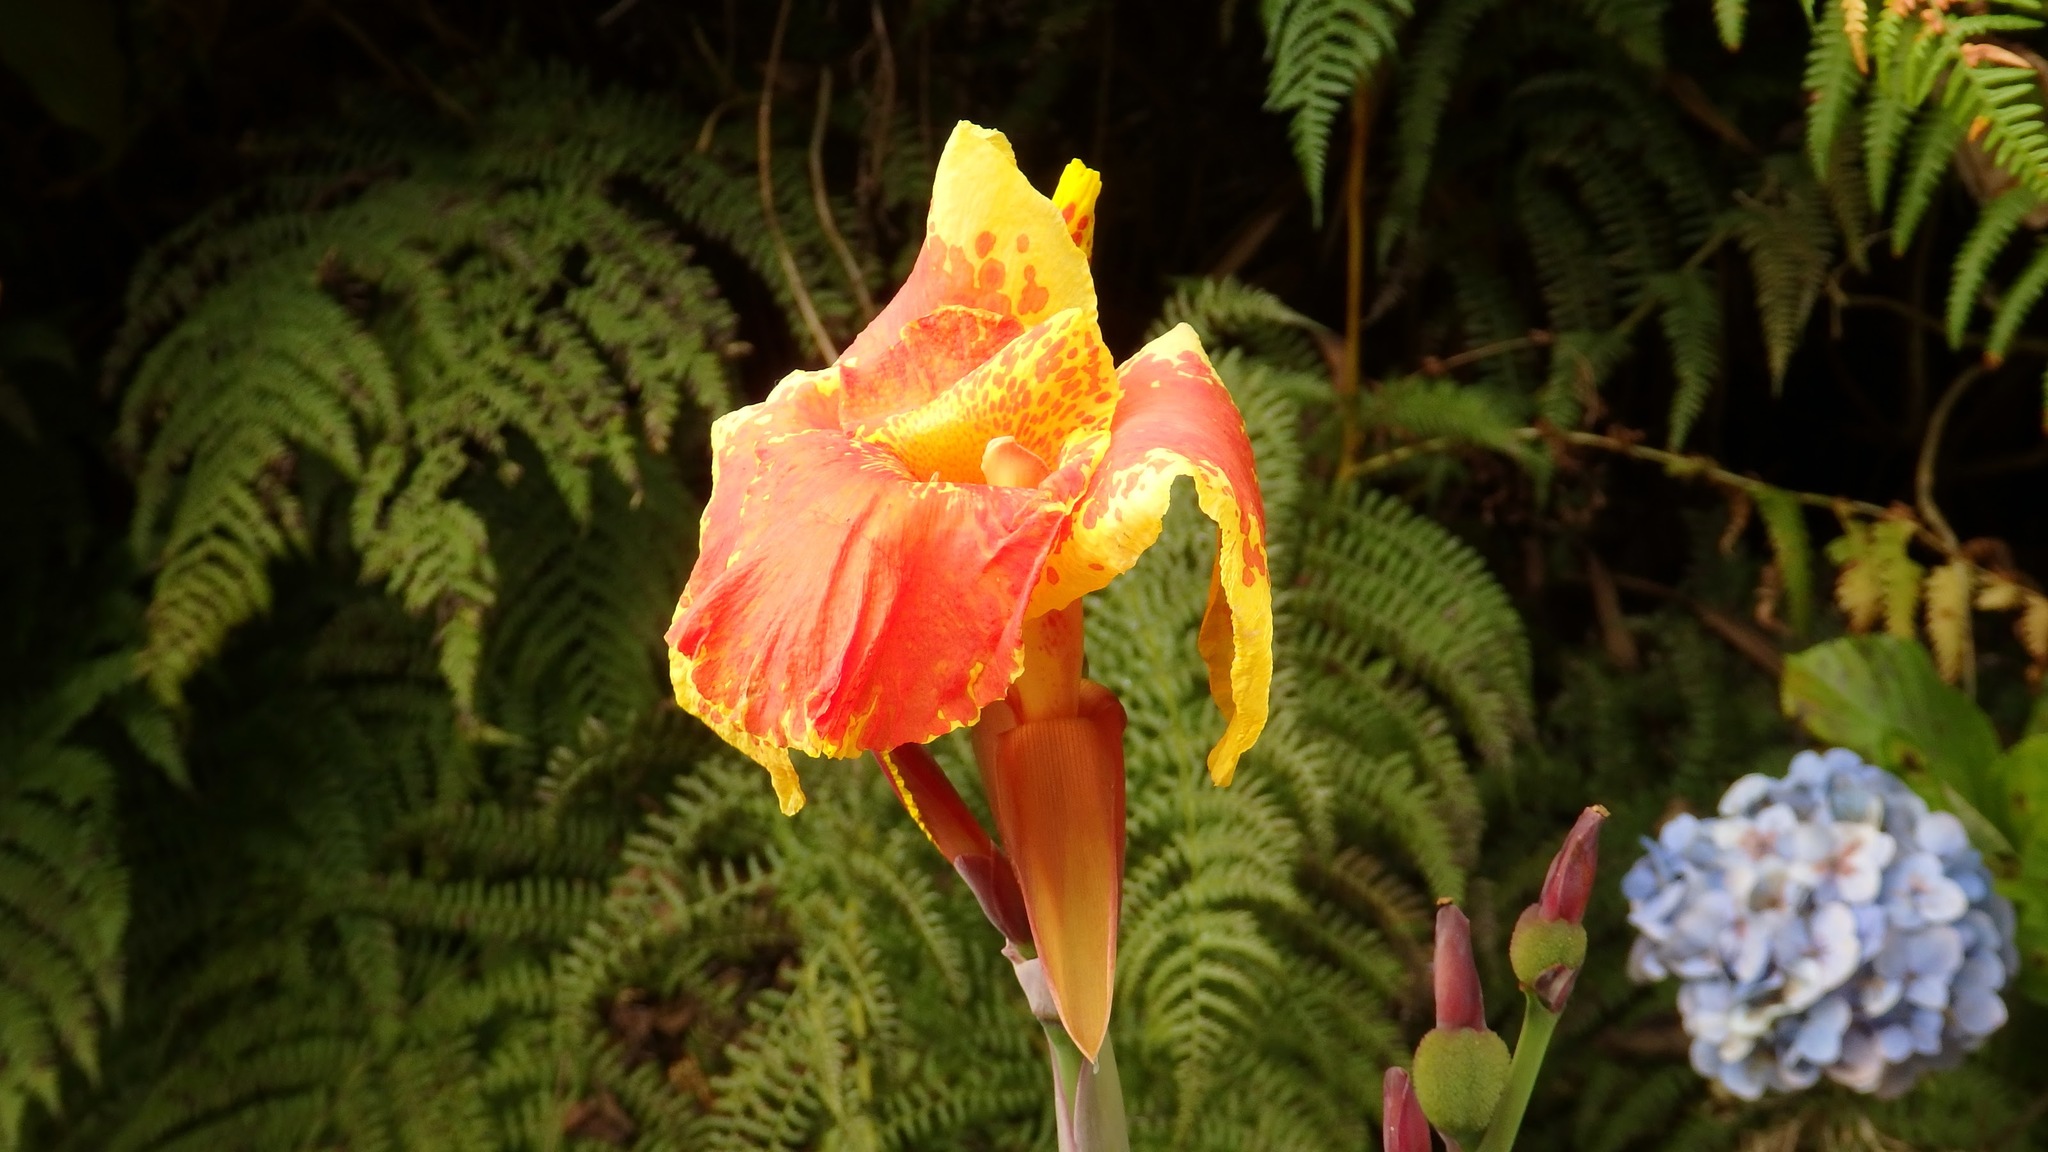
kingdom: Plantae
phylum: Tracheophyta
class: Liliopsida
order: Zingiberales
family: Cannaceae
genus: Canna
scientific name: Canna hybrida
